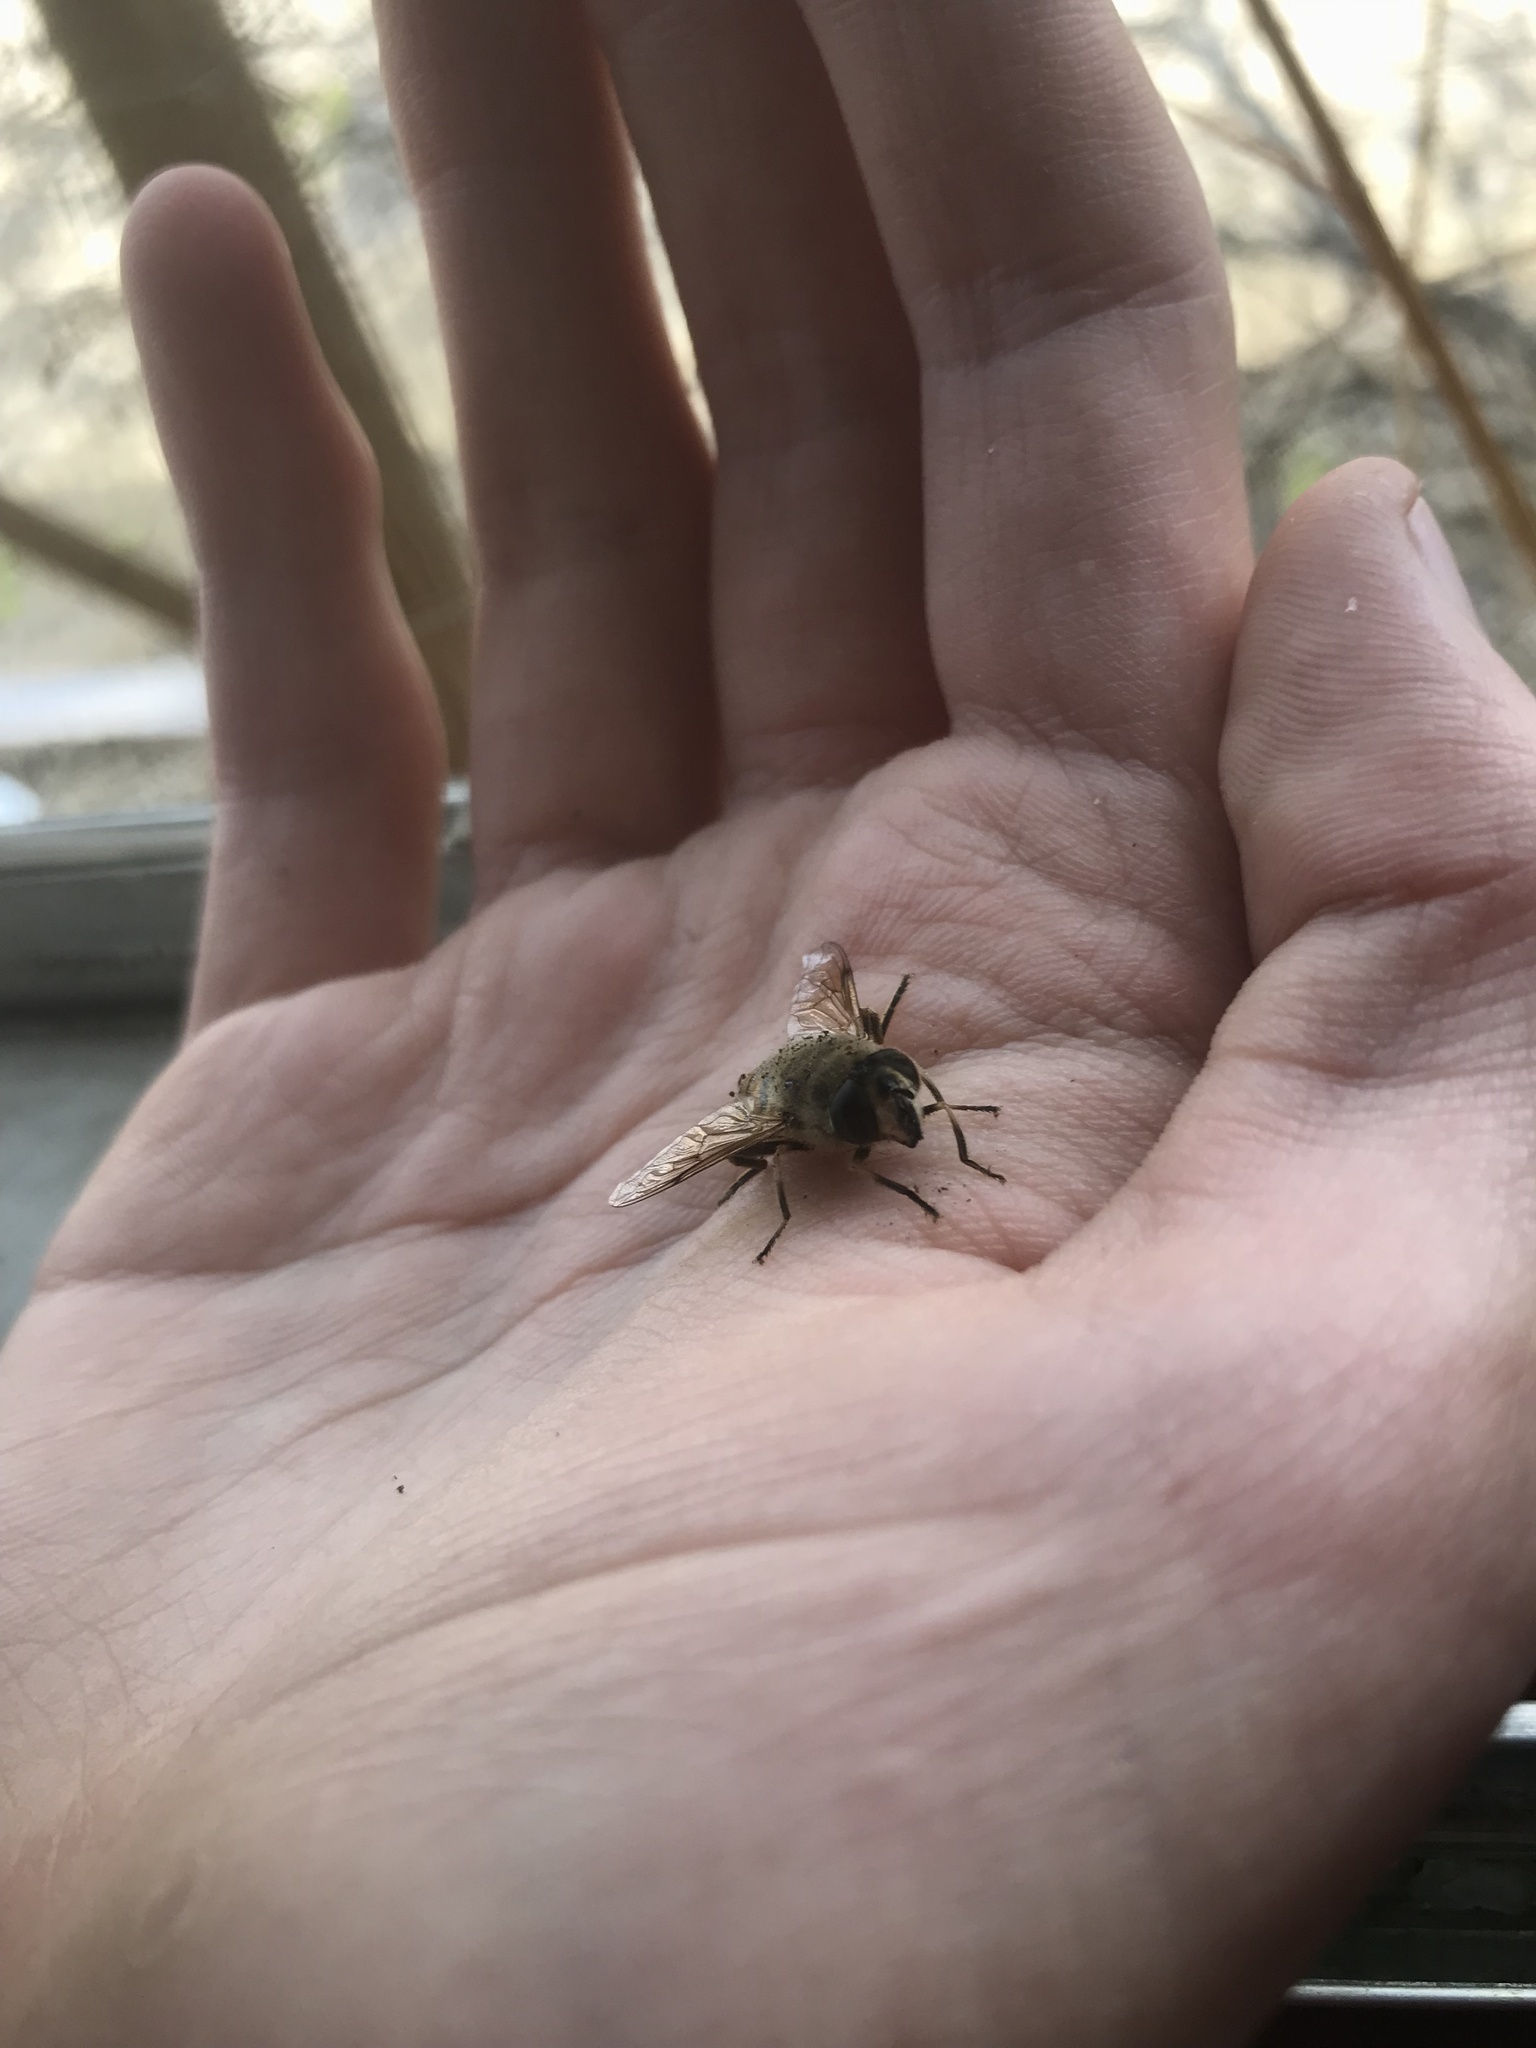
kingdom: Animalia
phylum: Arthropoda
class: Insecta
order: Diptera
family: Syrphidae
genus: Eristalis
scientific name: Eristalis tenax
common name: Drone fly
